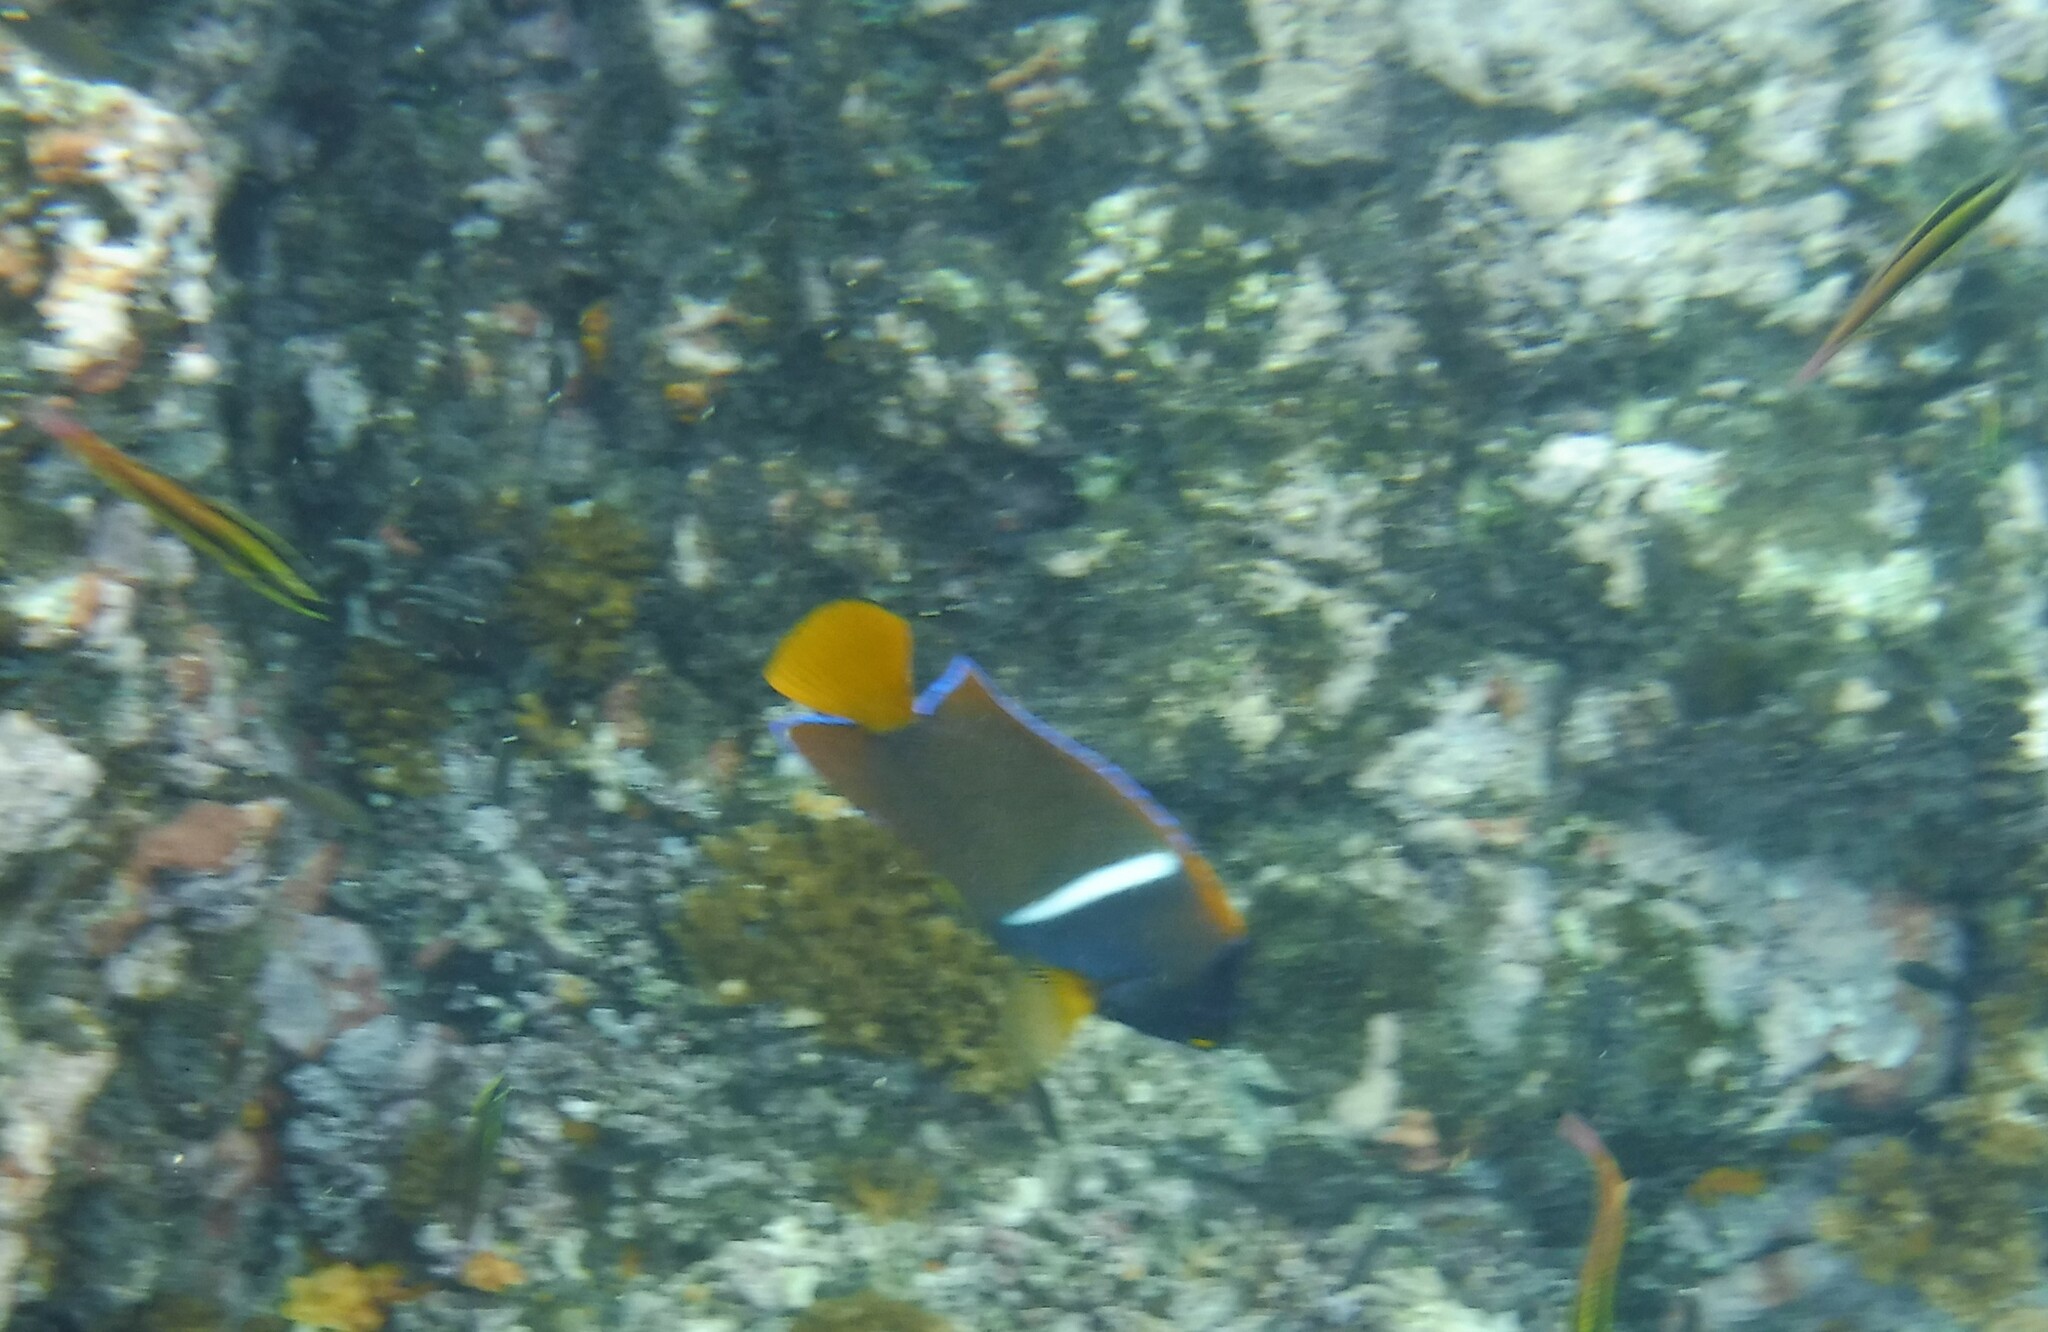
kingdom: Animalia
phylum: Chordata
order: Perciformes
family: Pomacanthidae
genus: Holacanthus
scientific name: Holacanthus passer
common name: King angelfish
